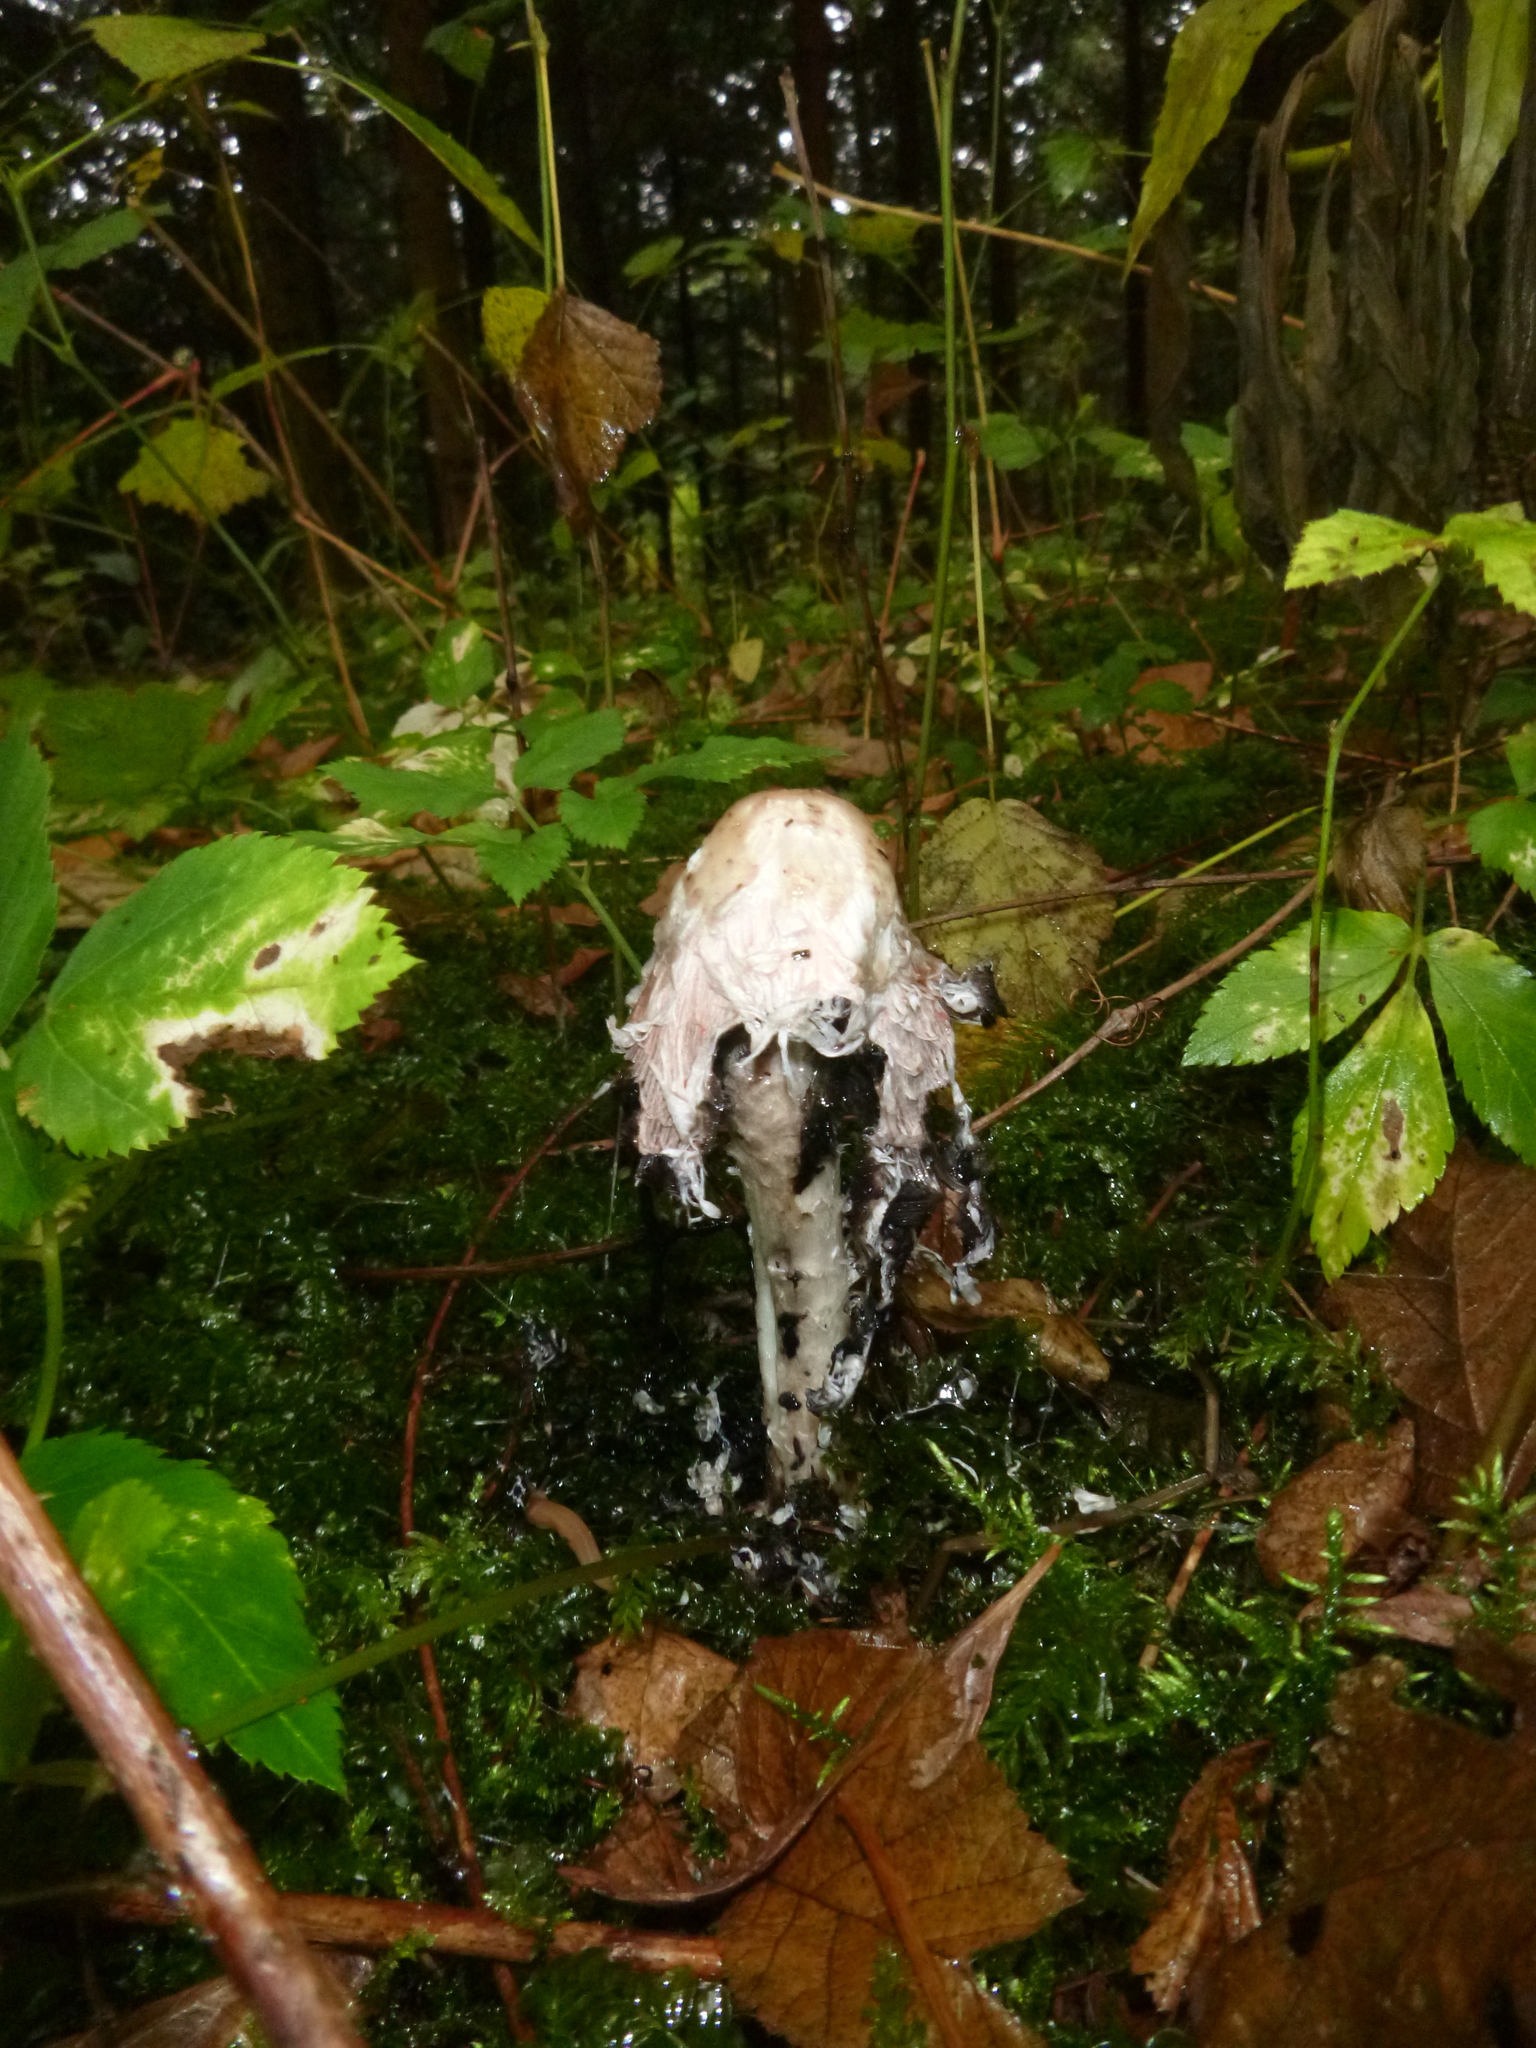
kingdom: Fungi
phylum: Basidiomycota
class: Agaricomycetes
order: Agaricales
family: Agaricaceae
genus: Coprinus
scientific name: Coprinus comatus
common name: Lawyer's wig
